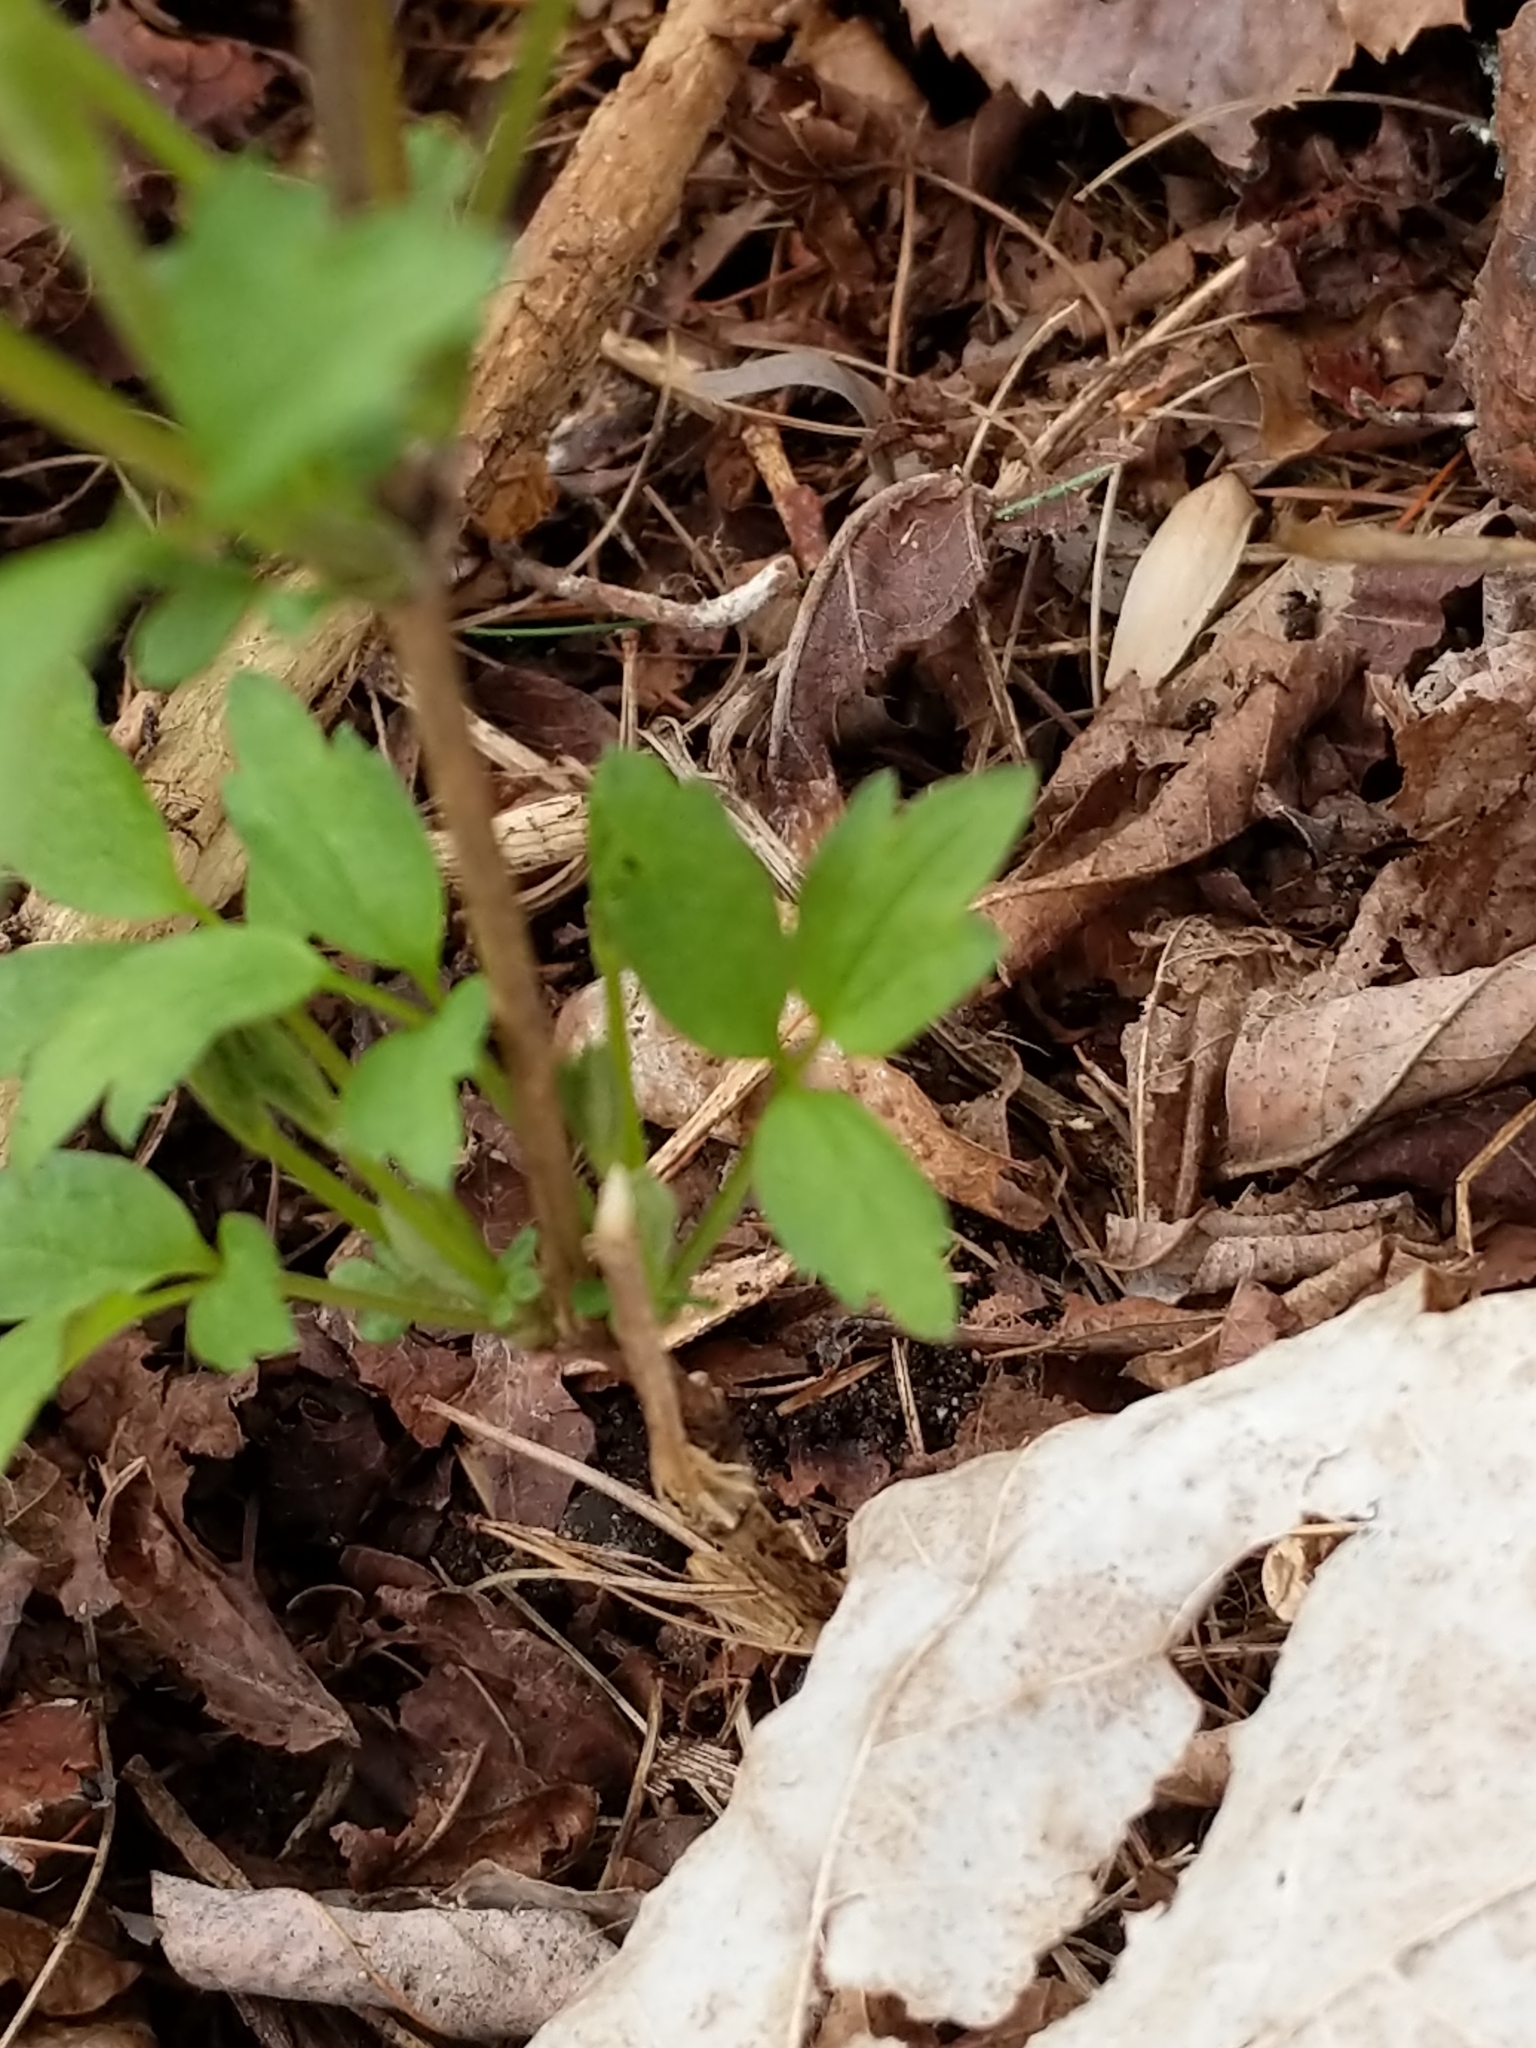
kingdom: Plantae
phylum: Tracheophyta
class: Magnoliopsida
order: Sapindales
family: Sapindaceae
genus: Acer
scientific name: Acer negundo
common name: Ashleaf maple
